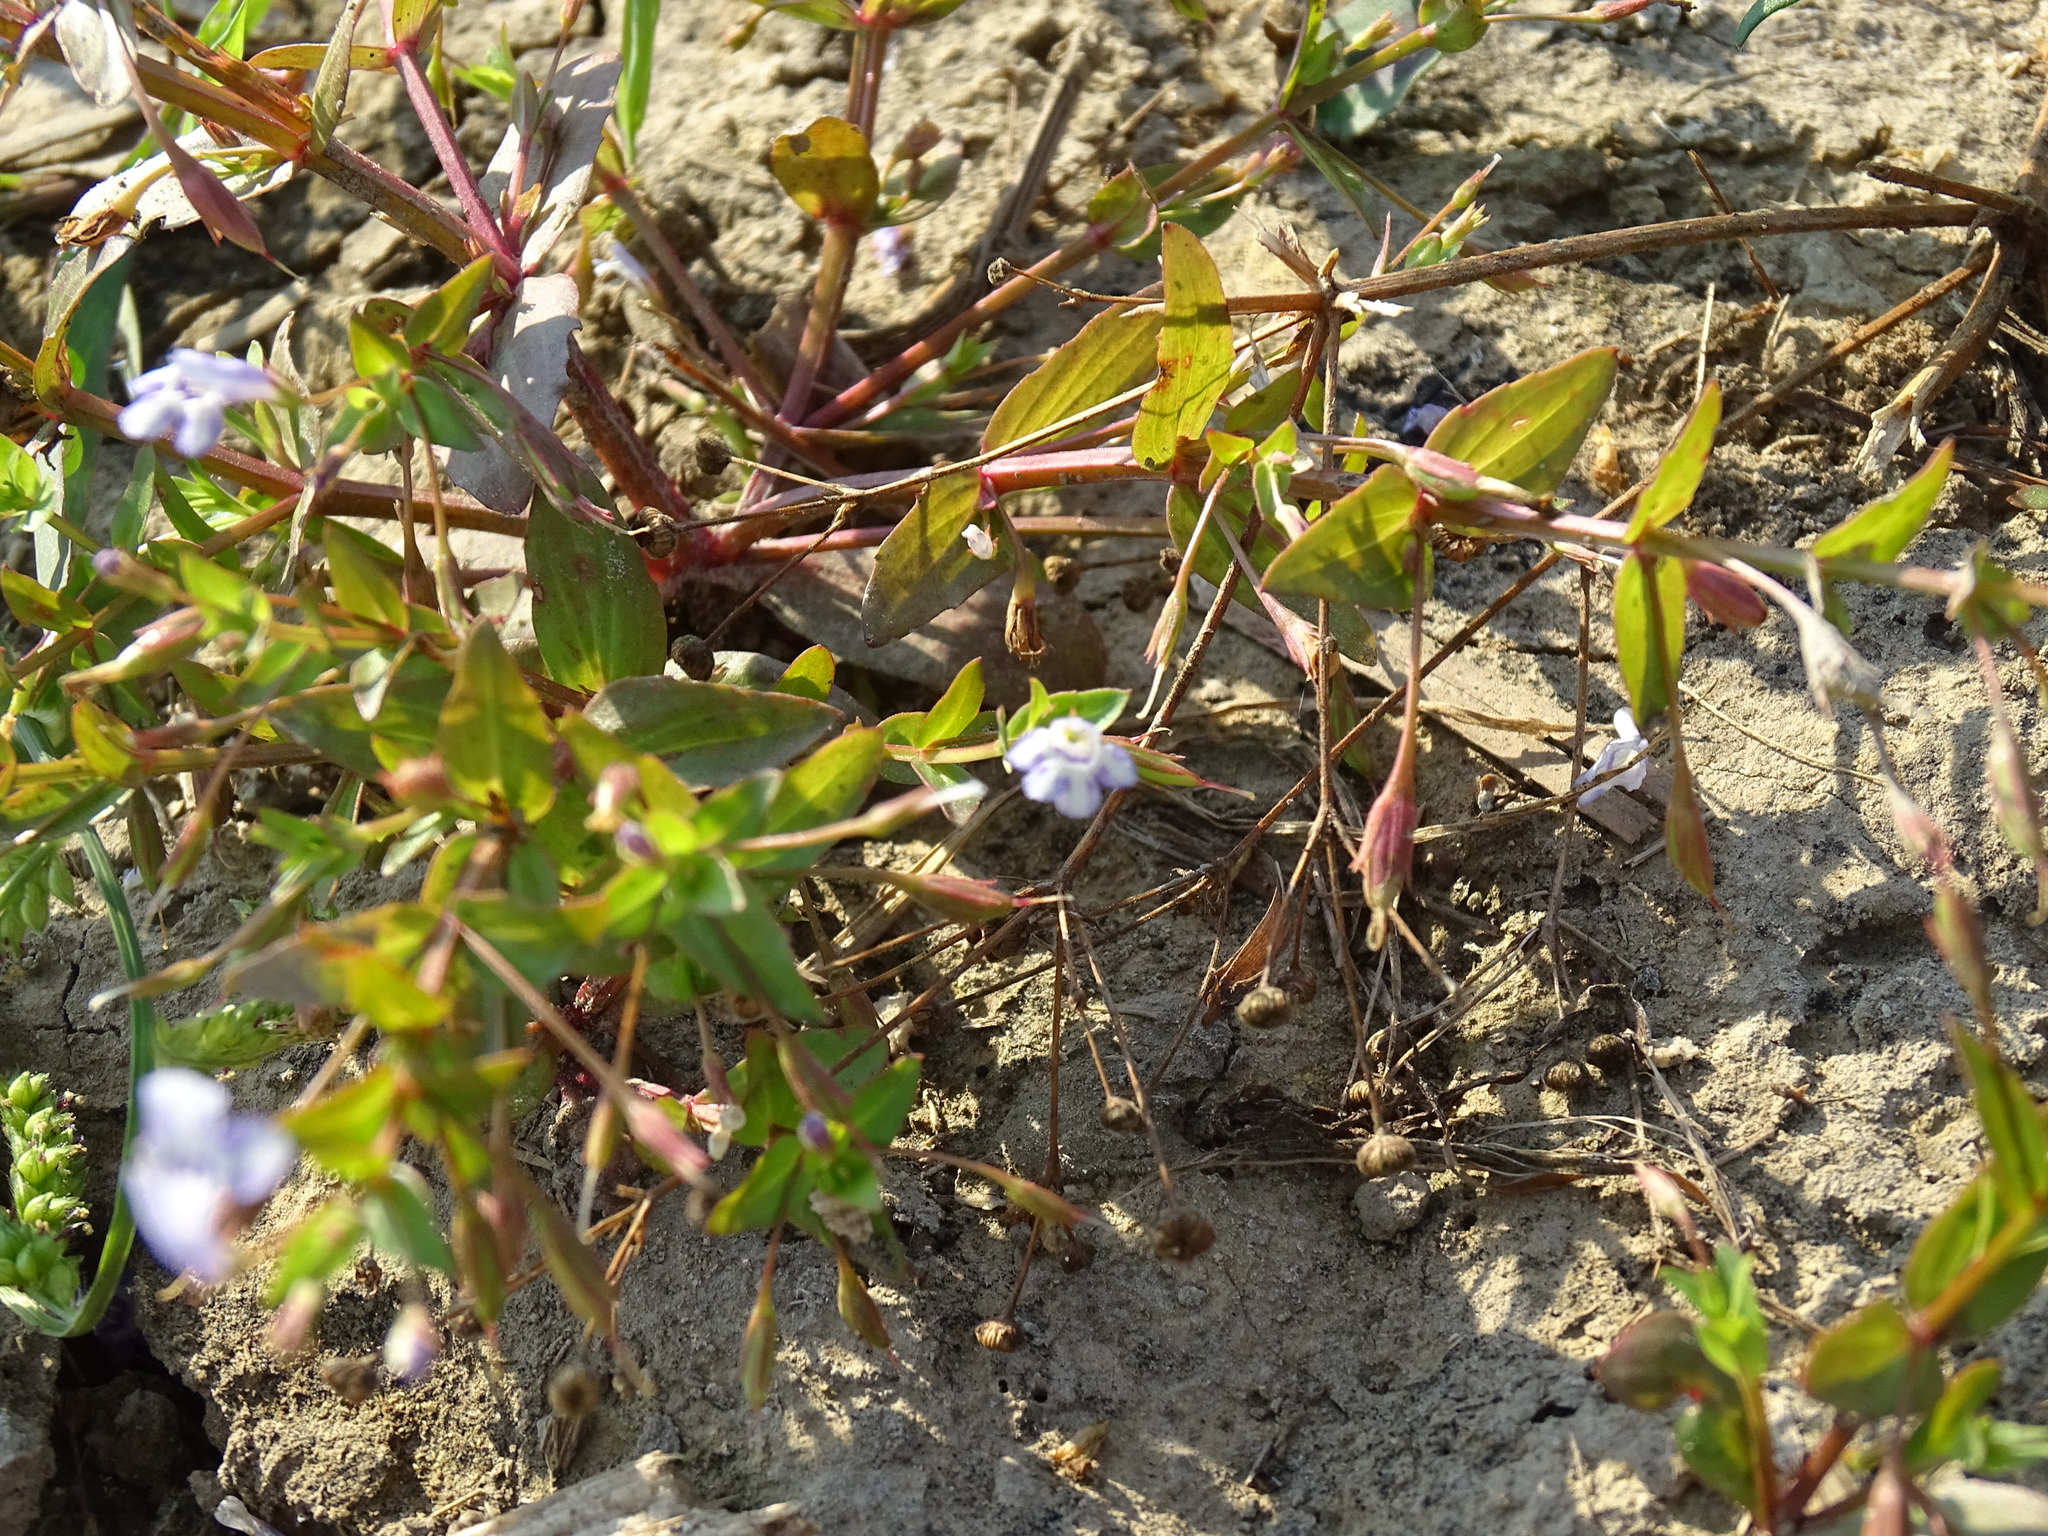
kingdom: Plantae
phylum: Tracheophyta
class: Magnoliopsida
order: Lamiales
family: Linderniaceae
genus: Lindernia
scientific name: Lindernia dubia
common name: Annual false pimpernel
